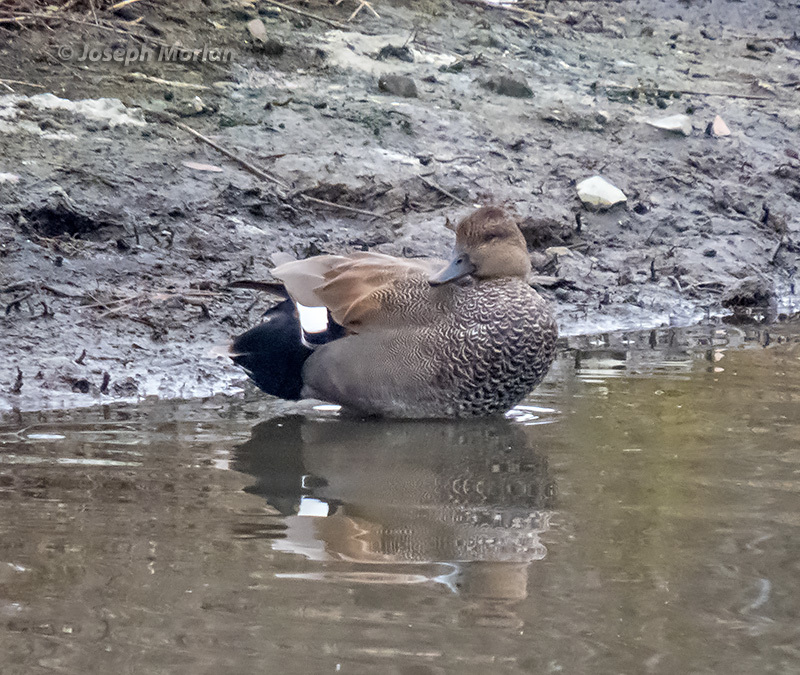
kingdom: Animalia
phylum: Chordata
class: Aves
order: Anseriformes
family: Anatidae
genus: Mareca
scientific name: Mareca strepera
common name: Gadwall
